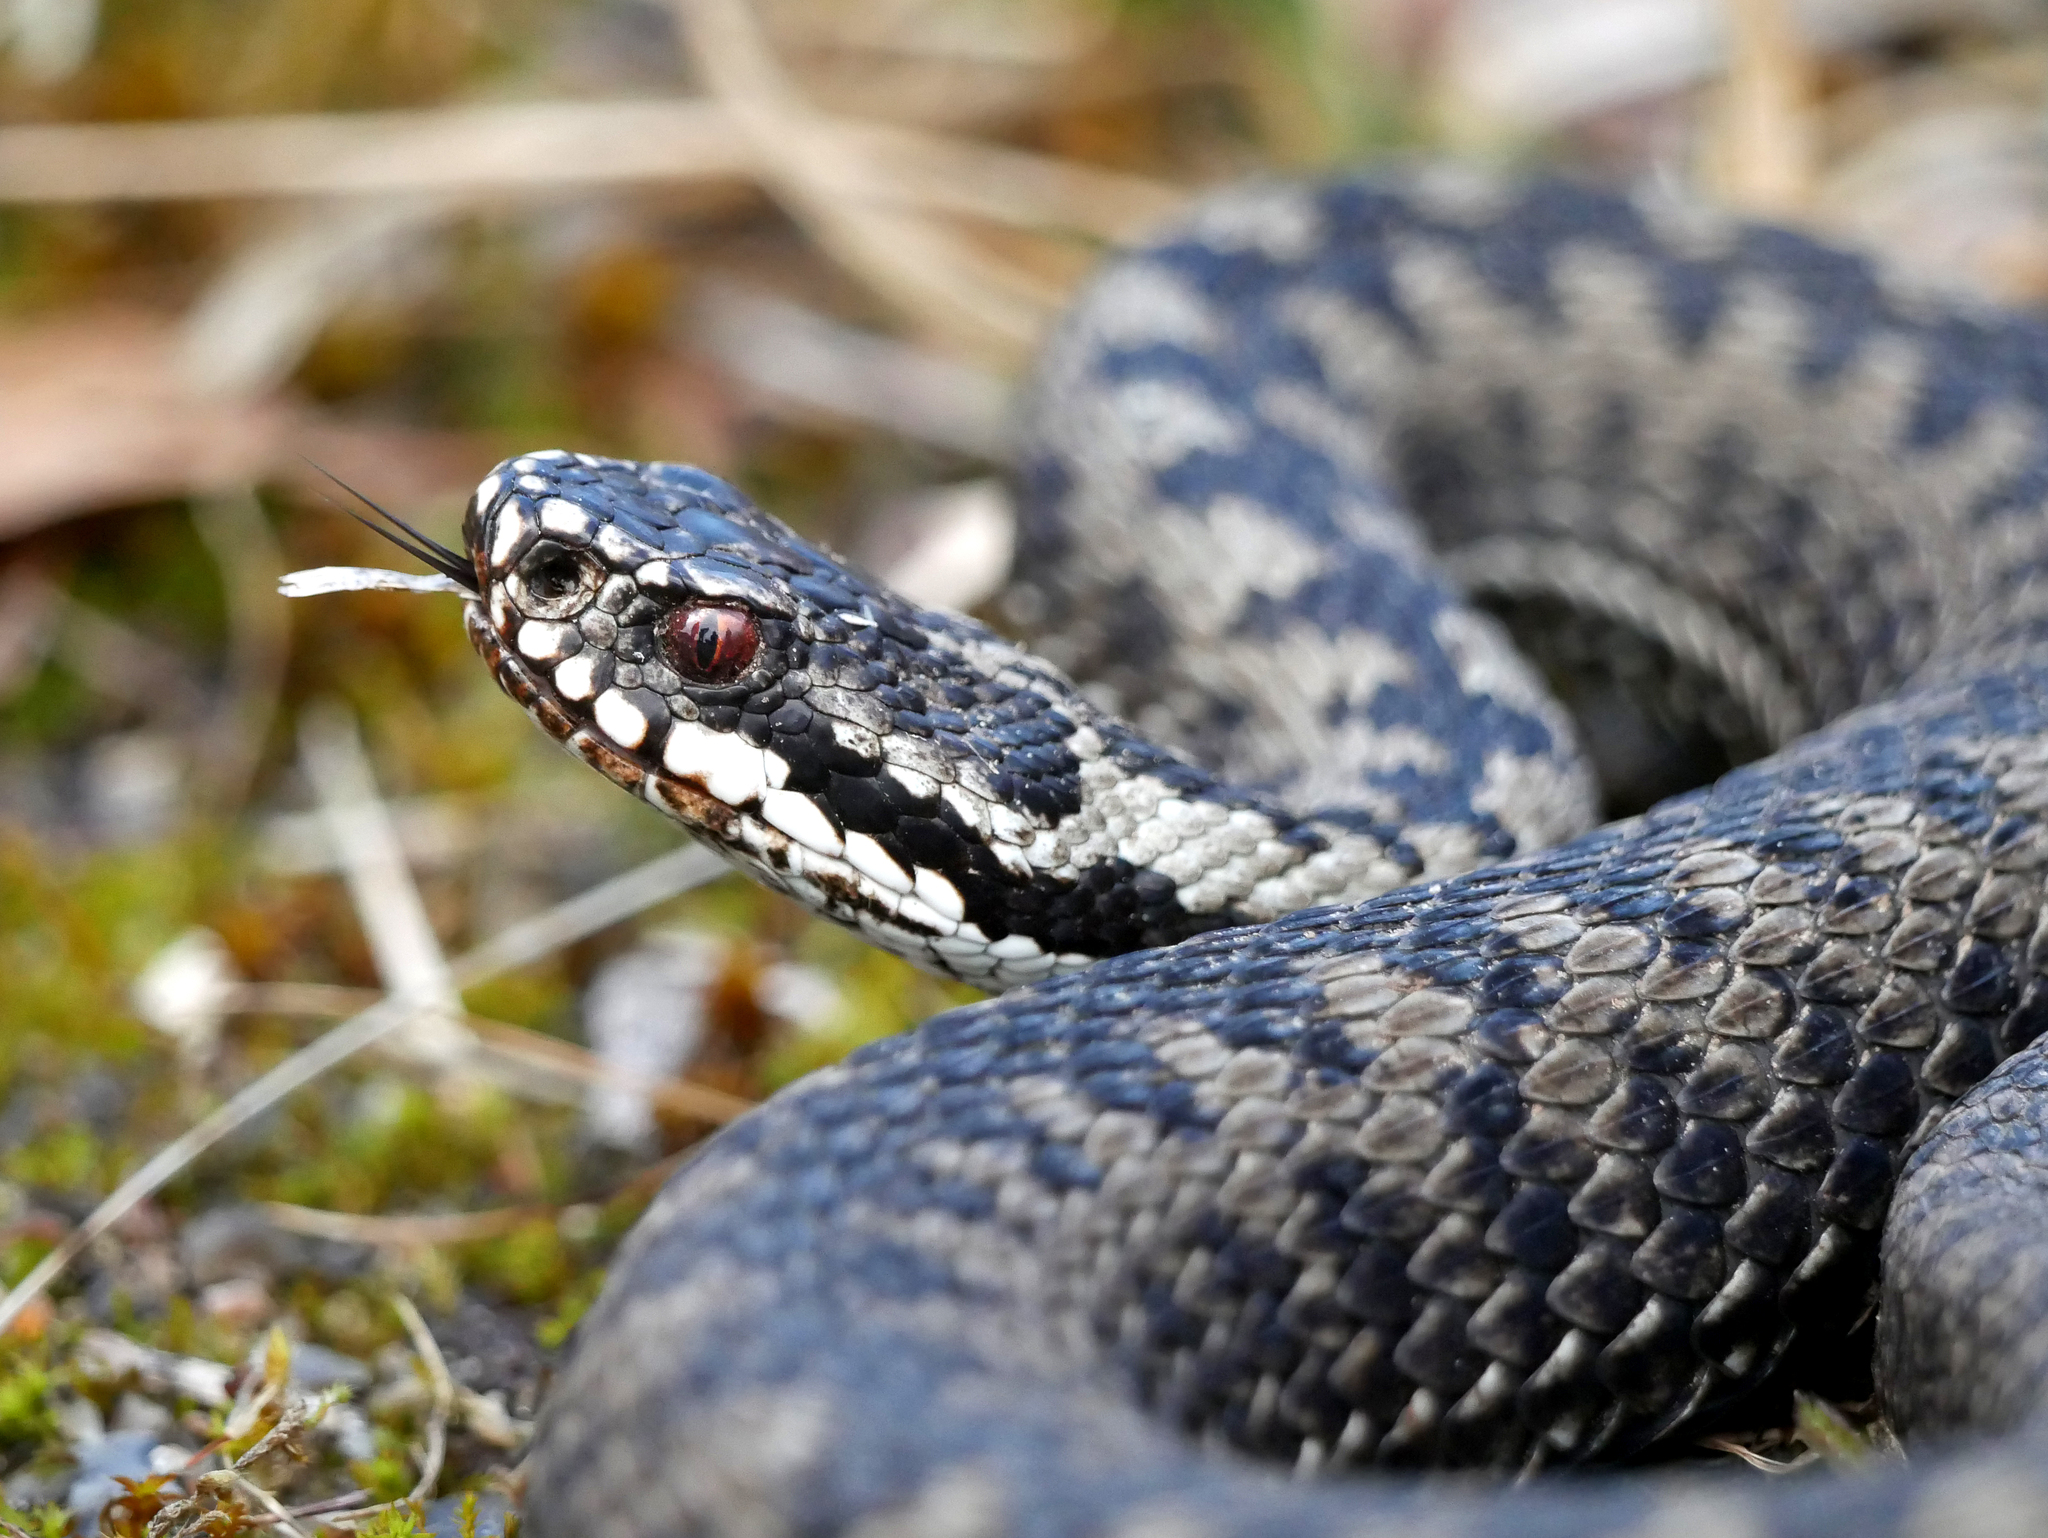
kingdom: Animalia
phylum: Chordata
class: Squamata
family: Viperidae
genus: Vipera
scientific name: Vipera berus
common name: Adder
